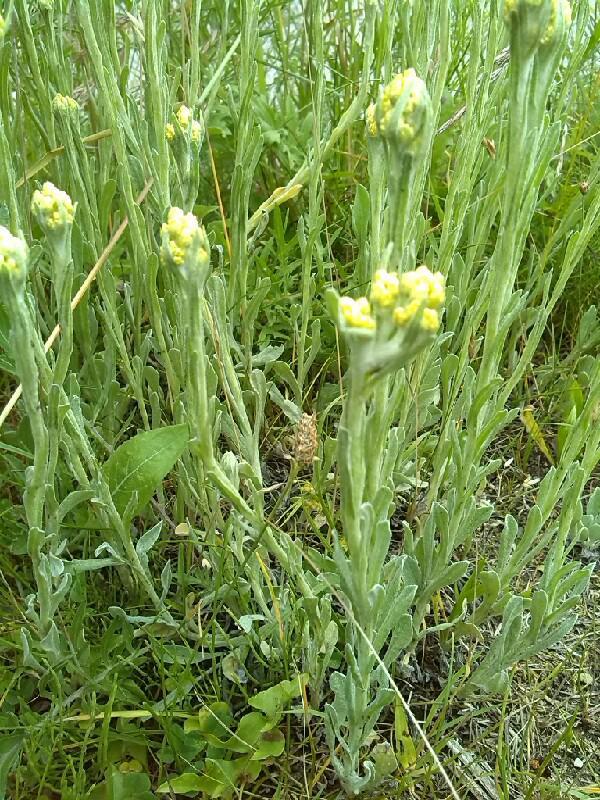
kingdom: Plantae
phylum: Tracheophyta
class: Magnoliopsida
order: Asterales
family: Asteraceae
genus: Helichrysum
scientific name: Helichrysum arenarium
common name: Strawflower
